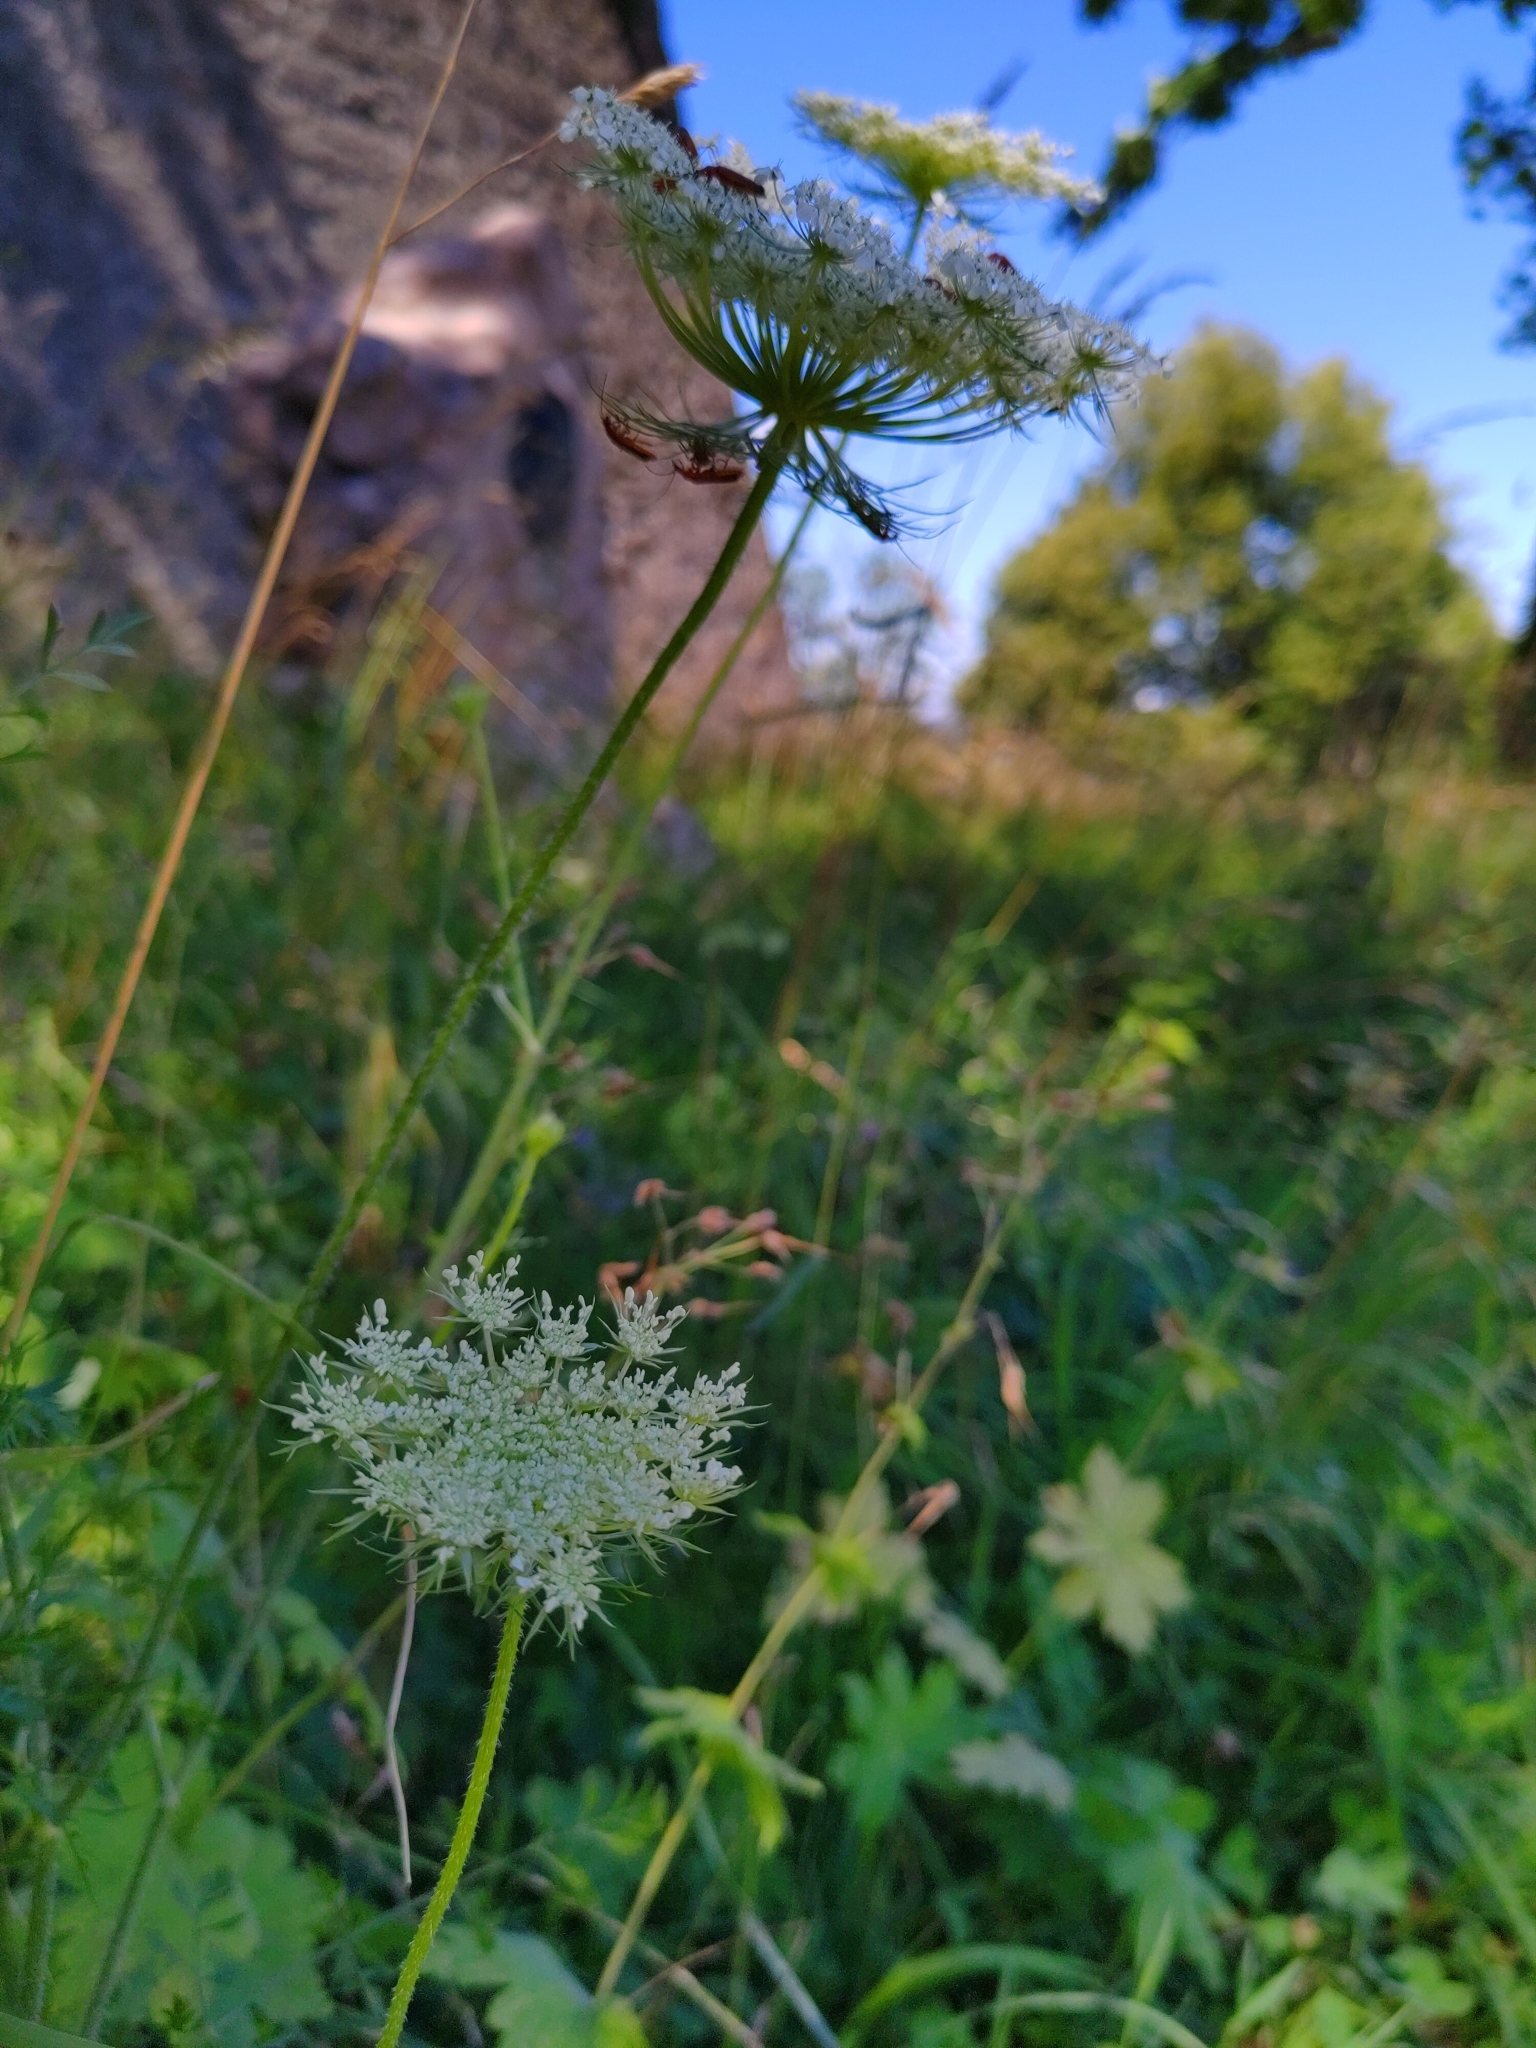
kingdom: Plantae
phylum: Tracheophyta
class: Magnoliopsida
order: Apiales
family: Apiaceae
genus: Daucus
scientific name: Daucus carota
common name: Wild carrot
